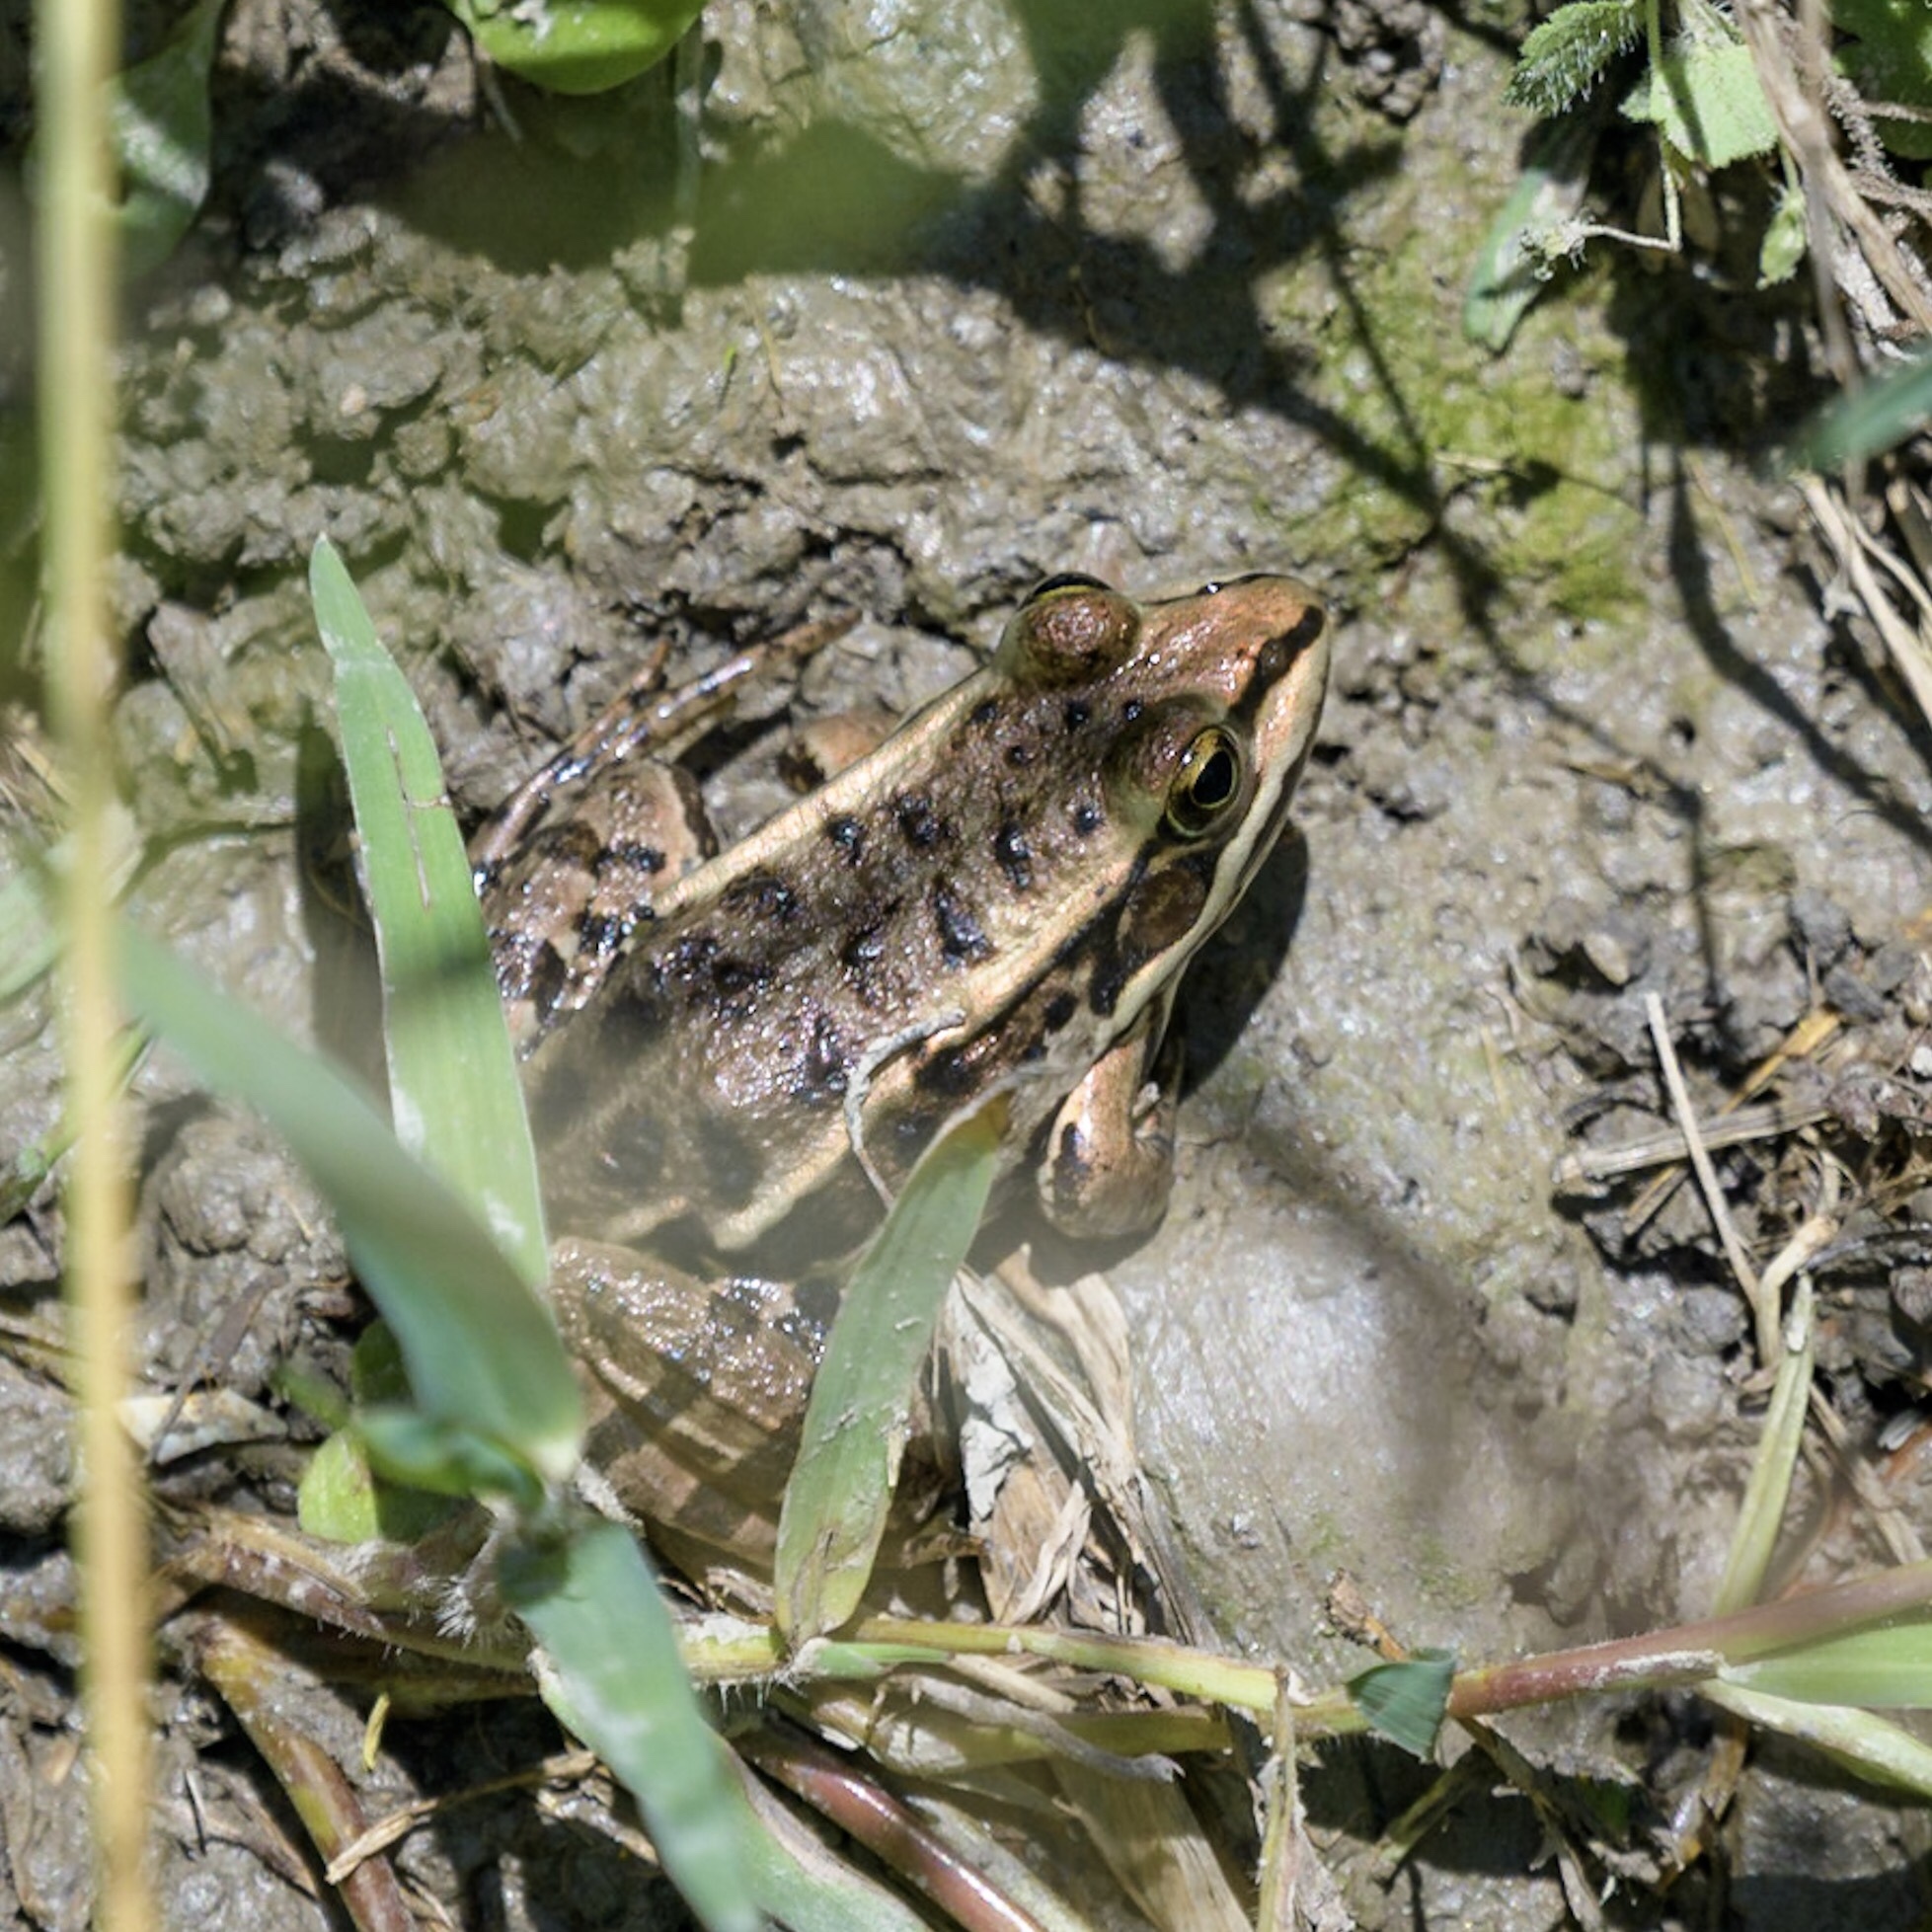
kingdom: Animalia
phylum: Chordata
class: Amphibia
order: Anura
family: Ranidae
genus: Pelophylax
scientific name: Pelophylax
